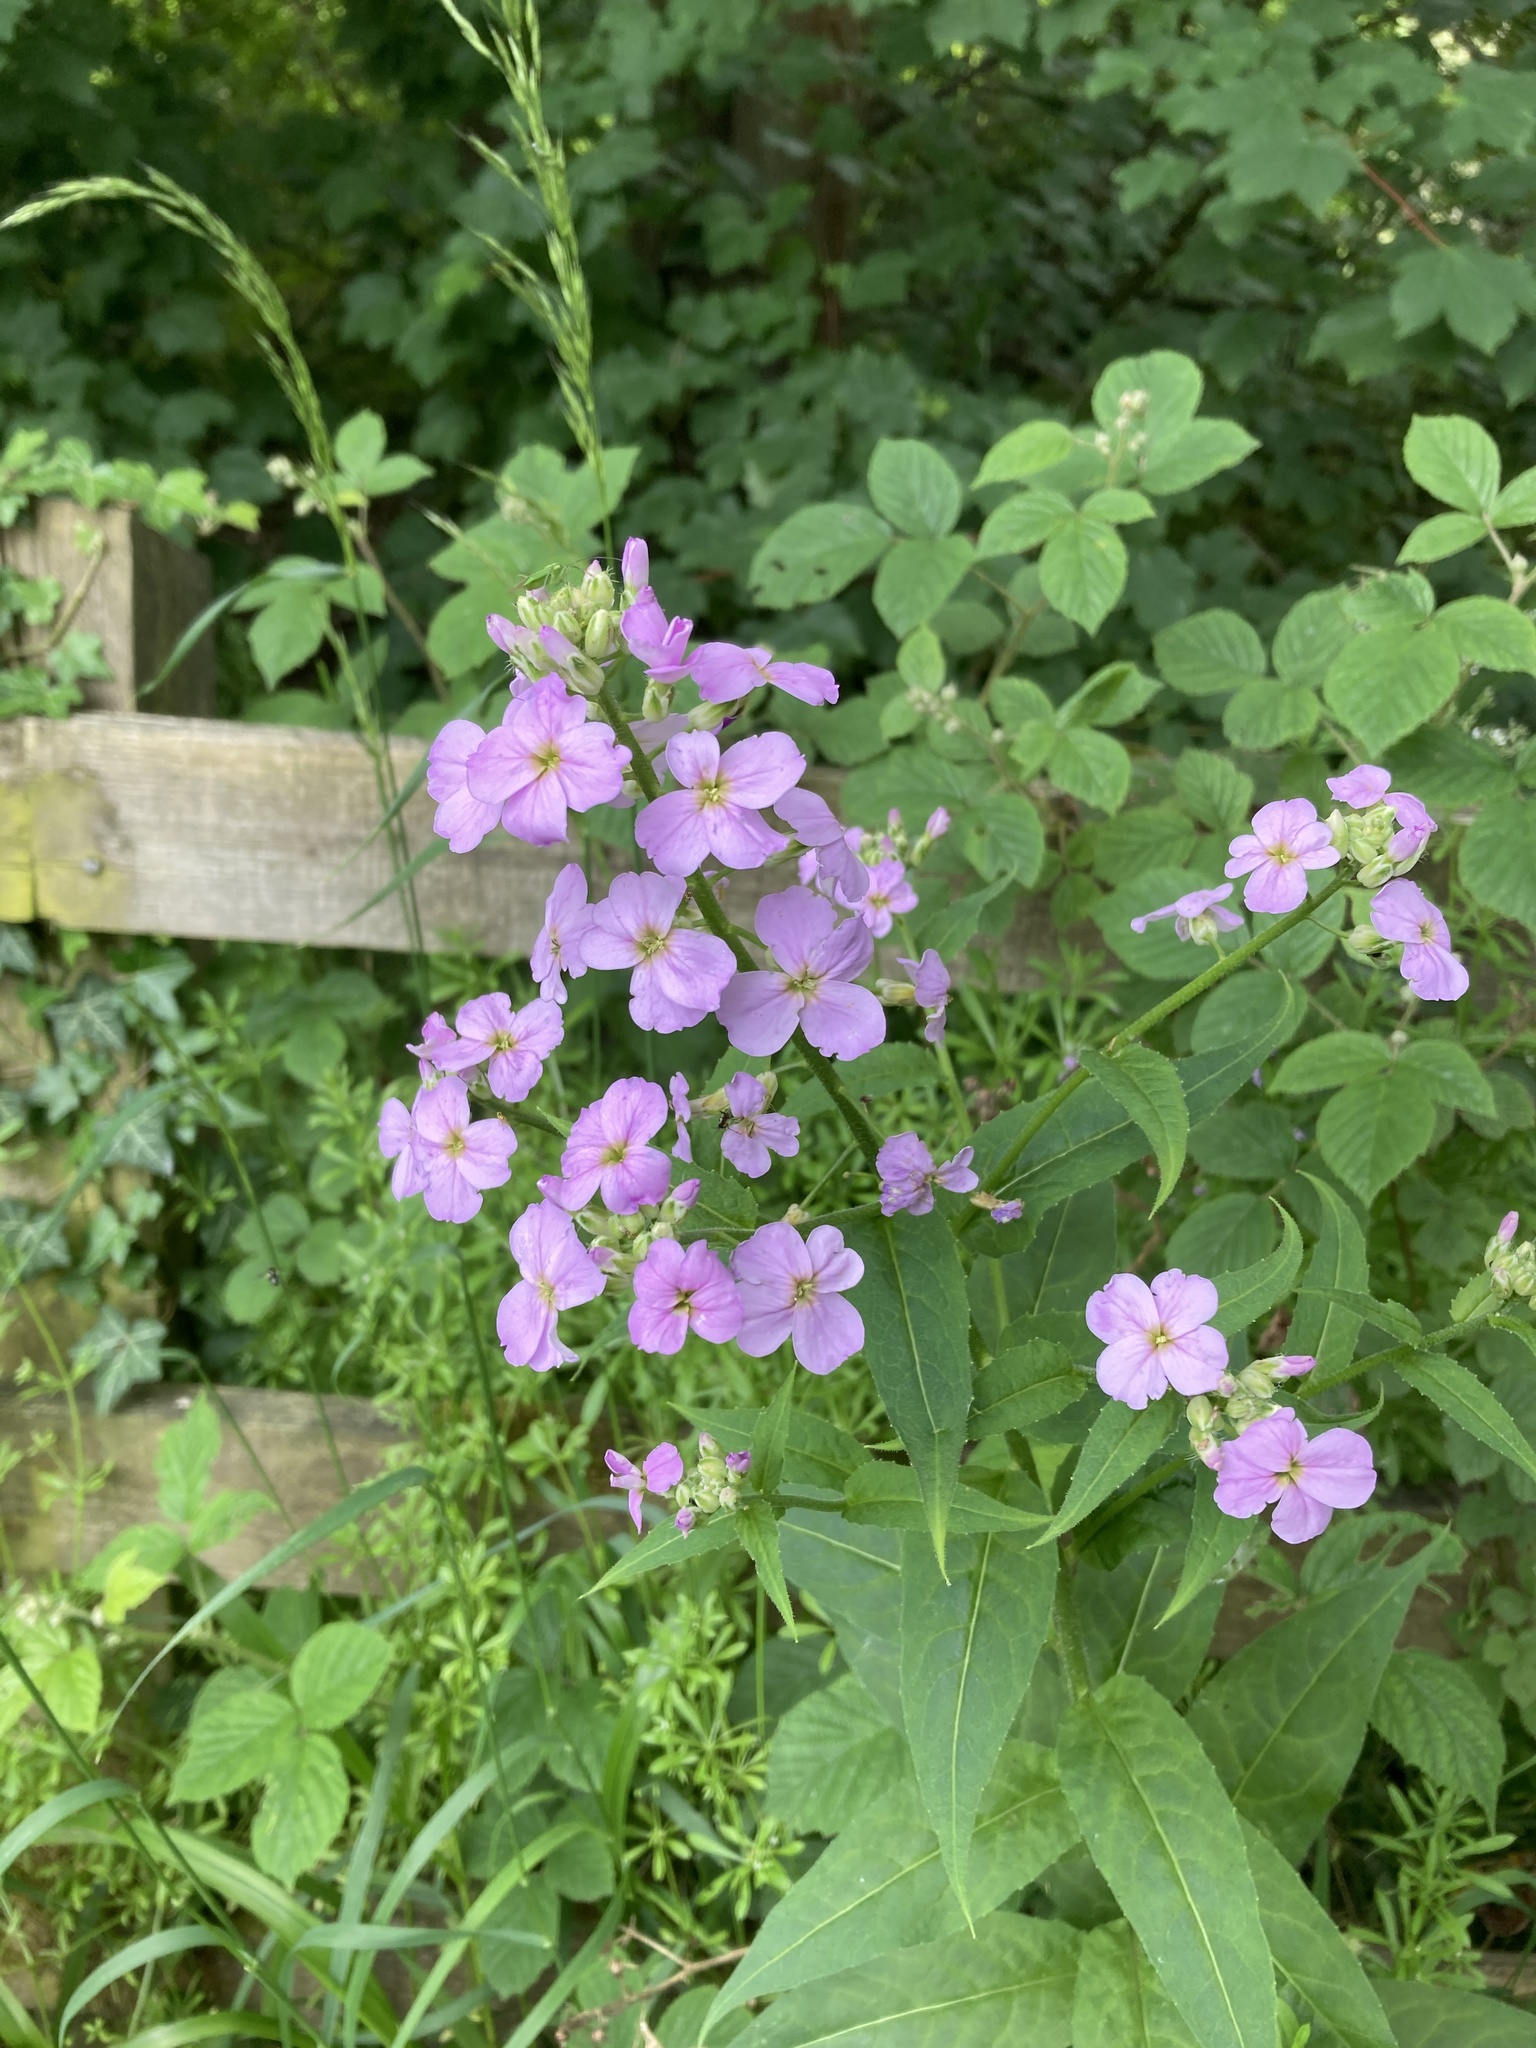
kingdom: Plantae
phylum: Tracheophyta
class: Magnoliopsida
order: Brassicales
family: Brassicaceae
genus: Hesperis
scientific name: Hesperis matronalis
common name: Dame's-violet
